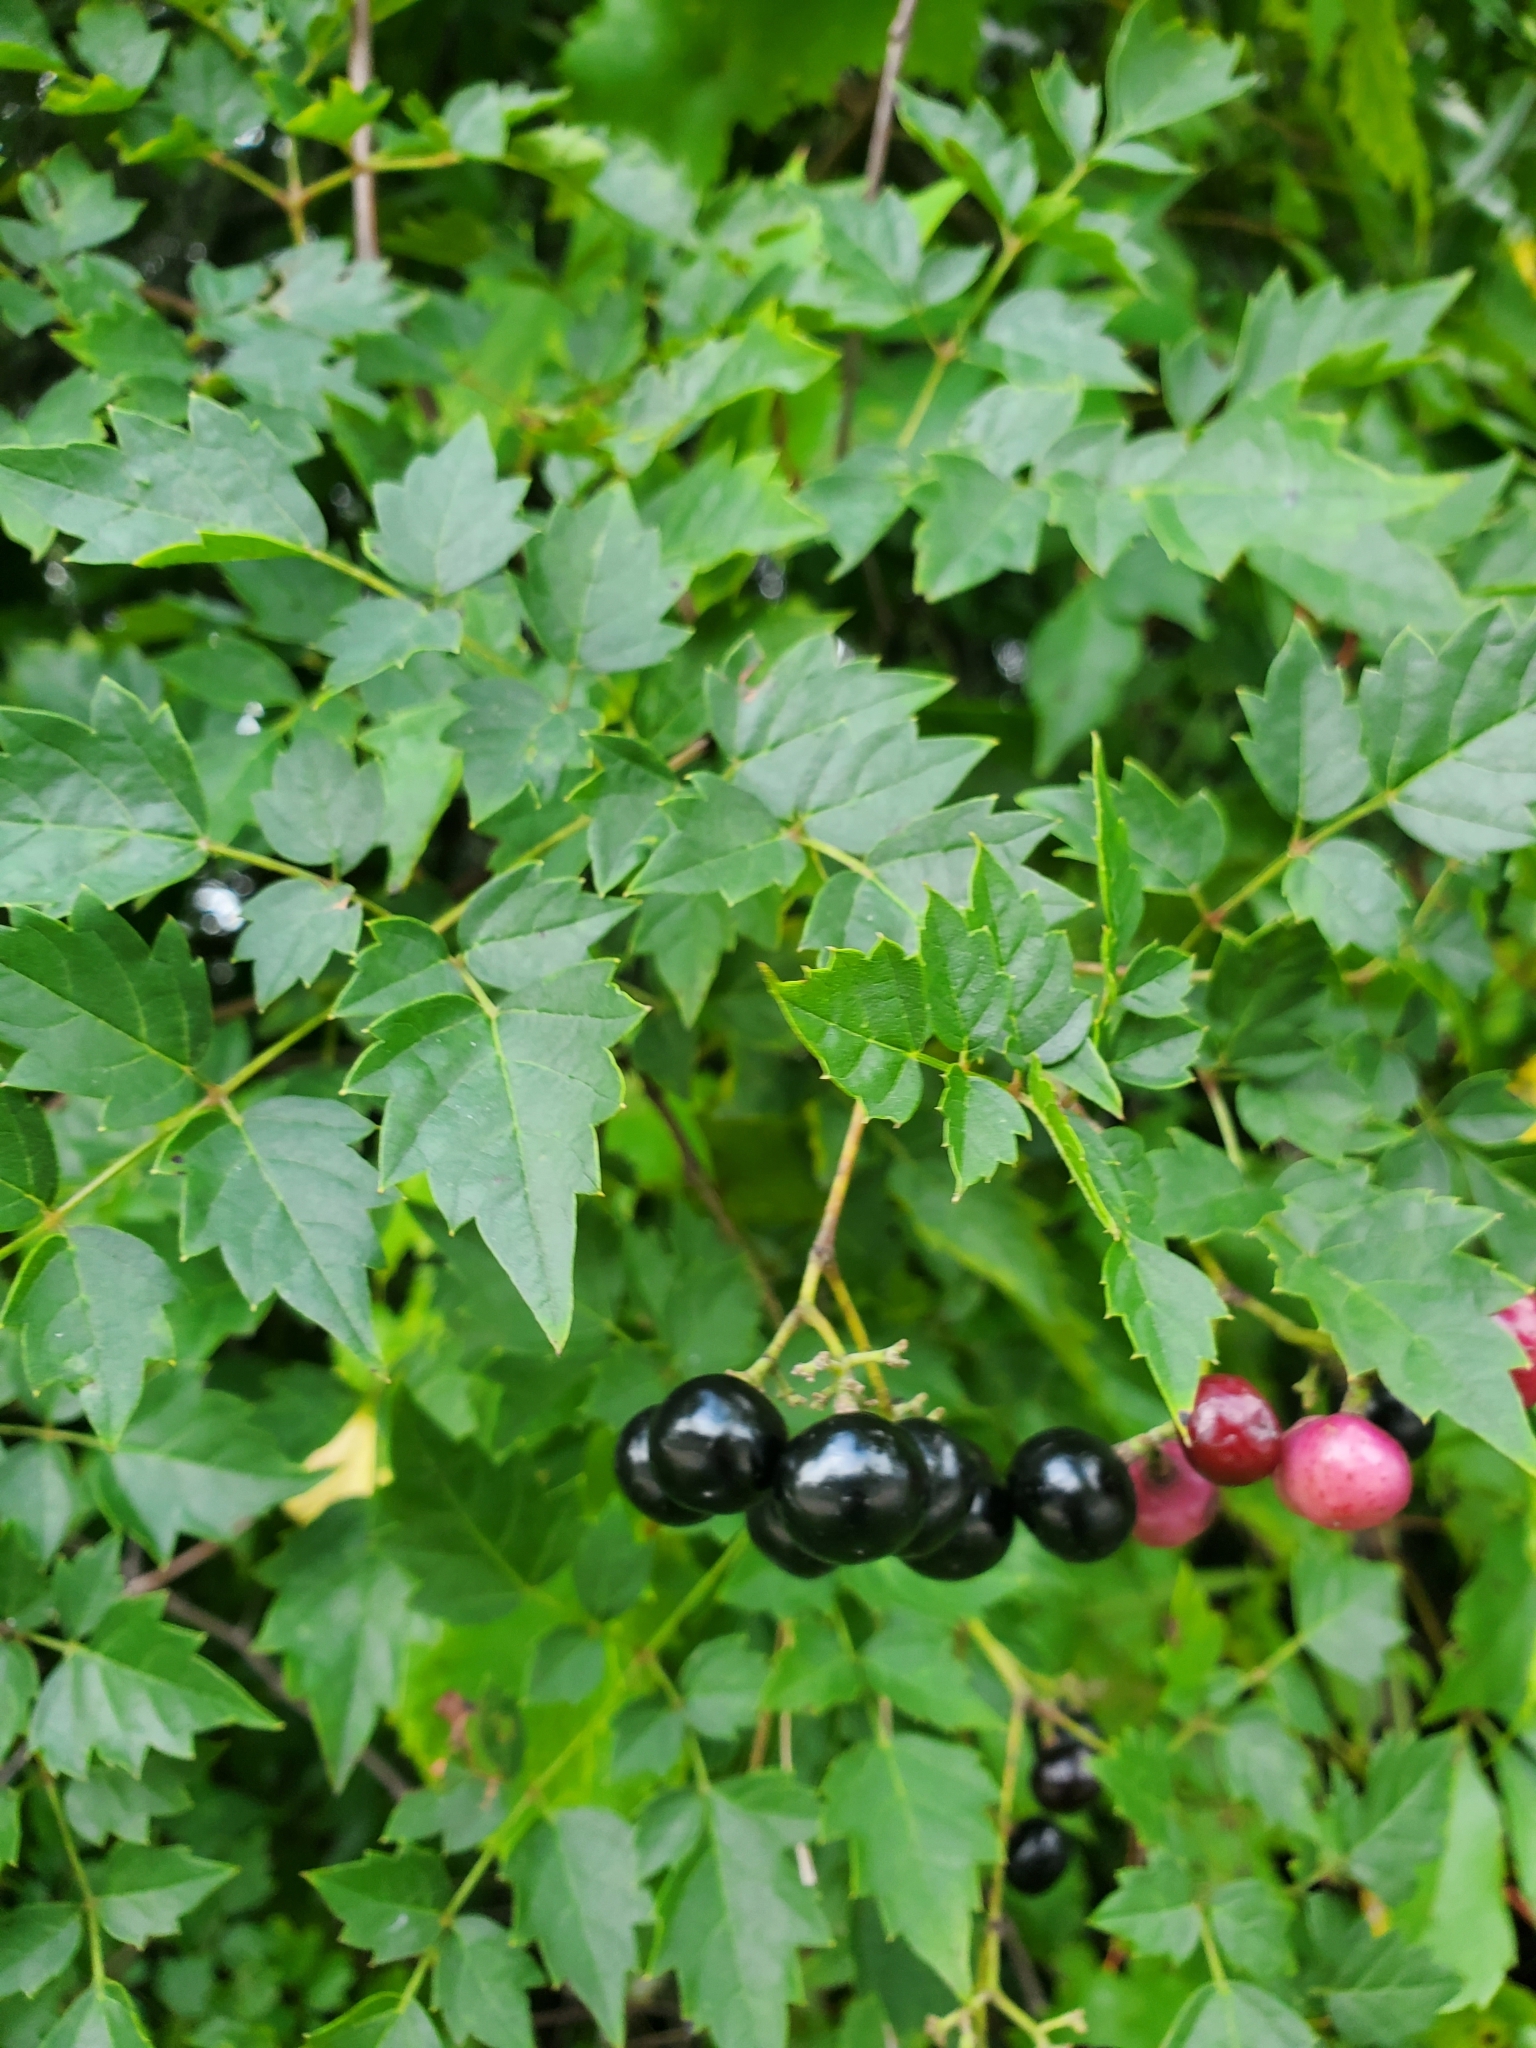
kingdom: Plantae
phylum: Tracheophyta
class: Magnoliopsida
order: Vitales
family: Vitaceae
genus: Nekemias
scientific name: Nekemias arborea
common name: Peppervine
